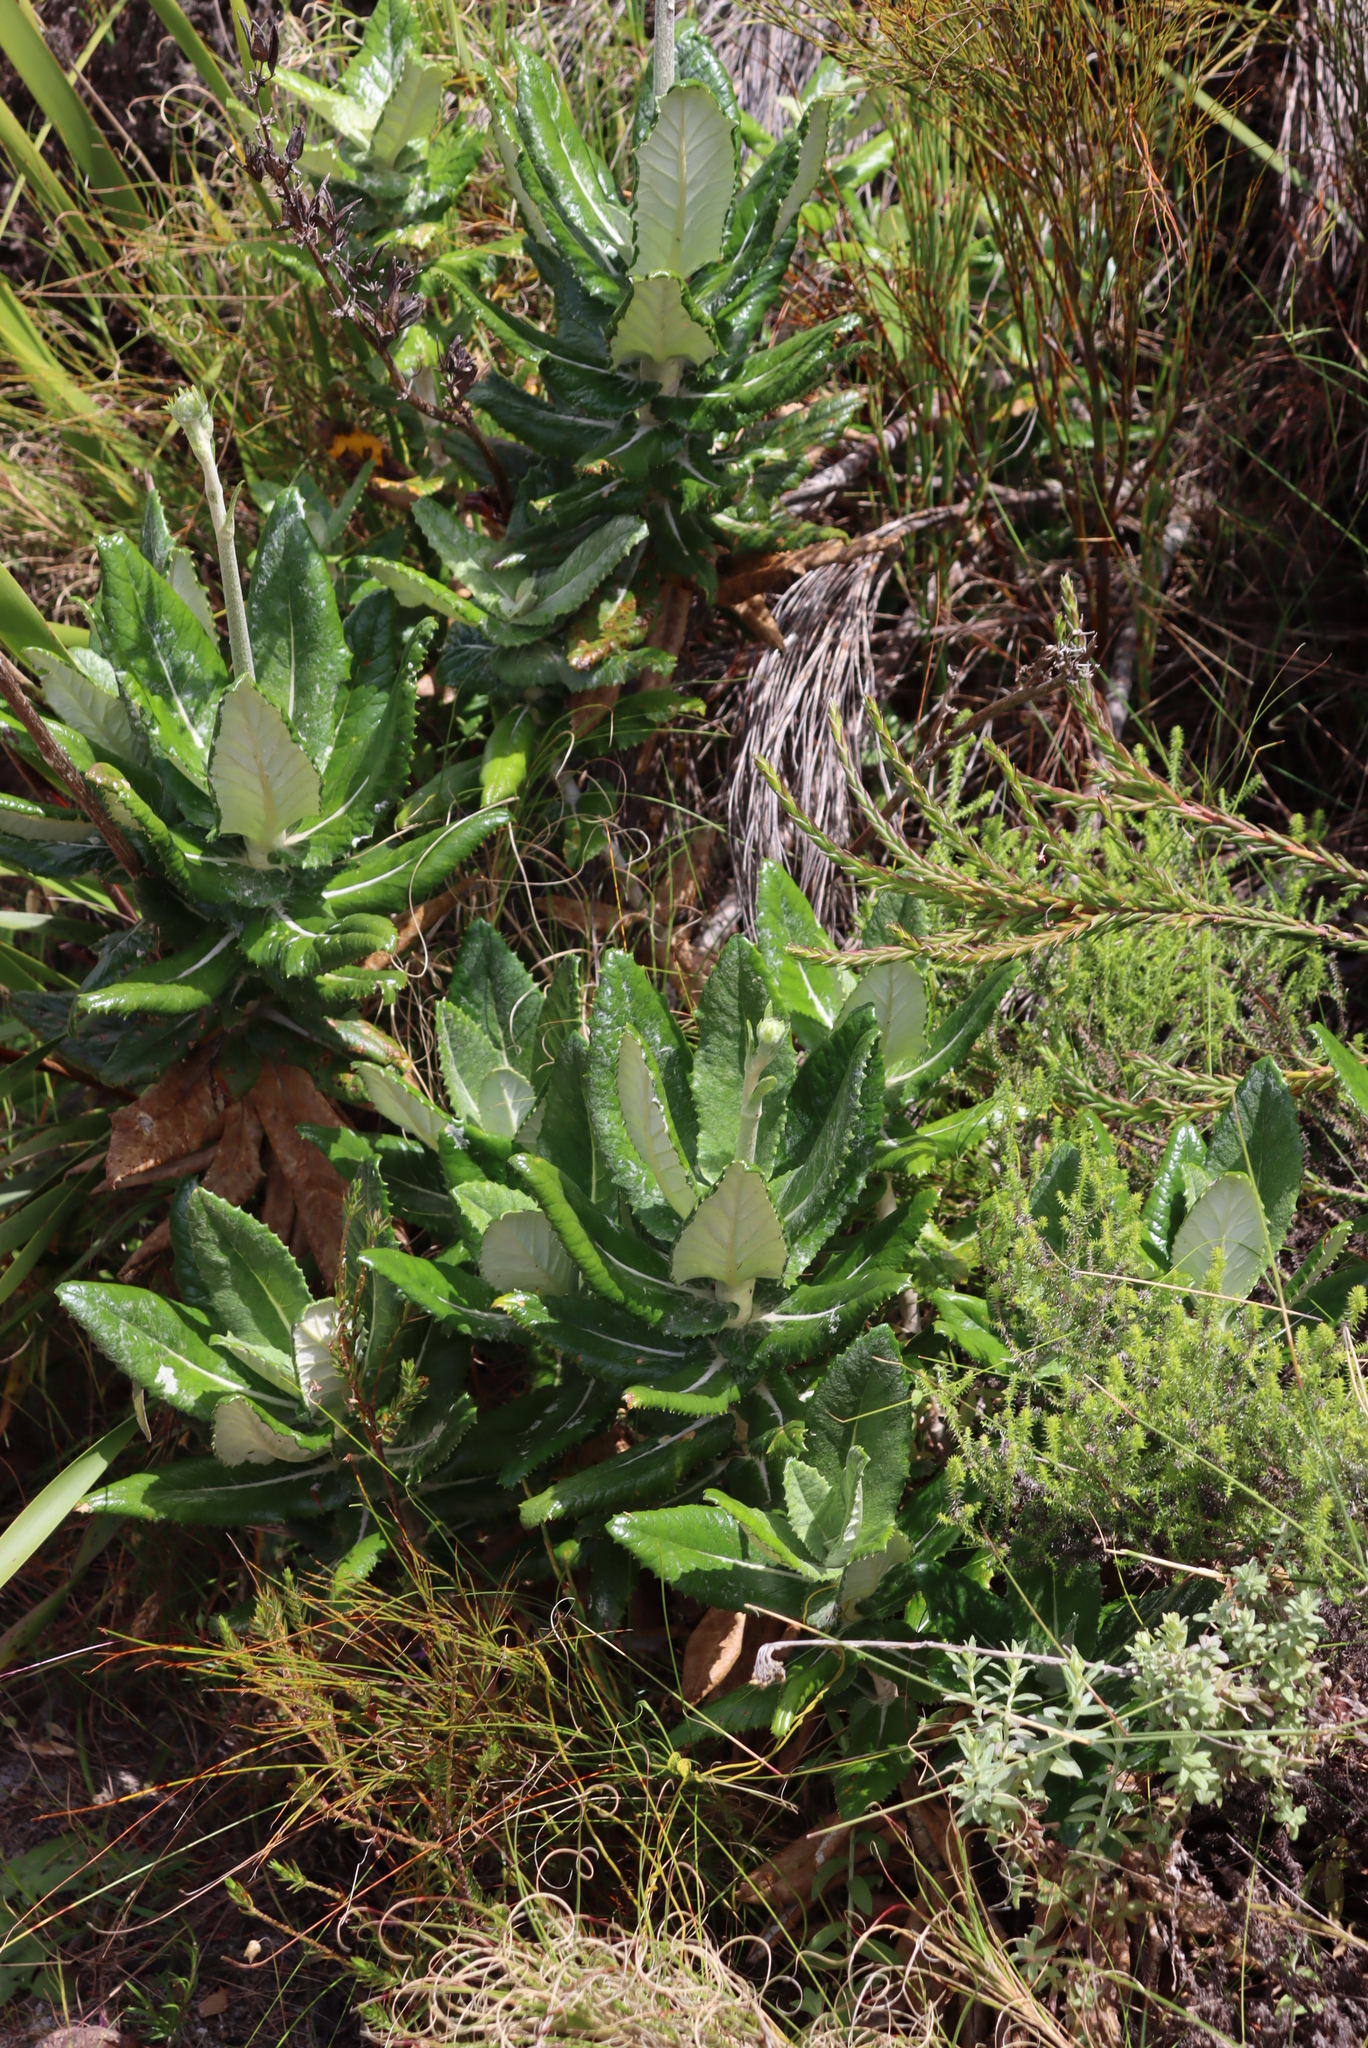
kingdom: Plantae
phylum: Tracheophyta
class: Magnoliopsida
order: Apiales
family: Apiaceae
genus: Hermas
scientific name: Hermas villosa
